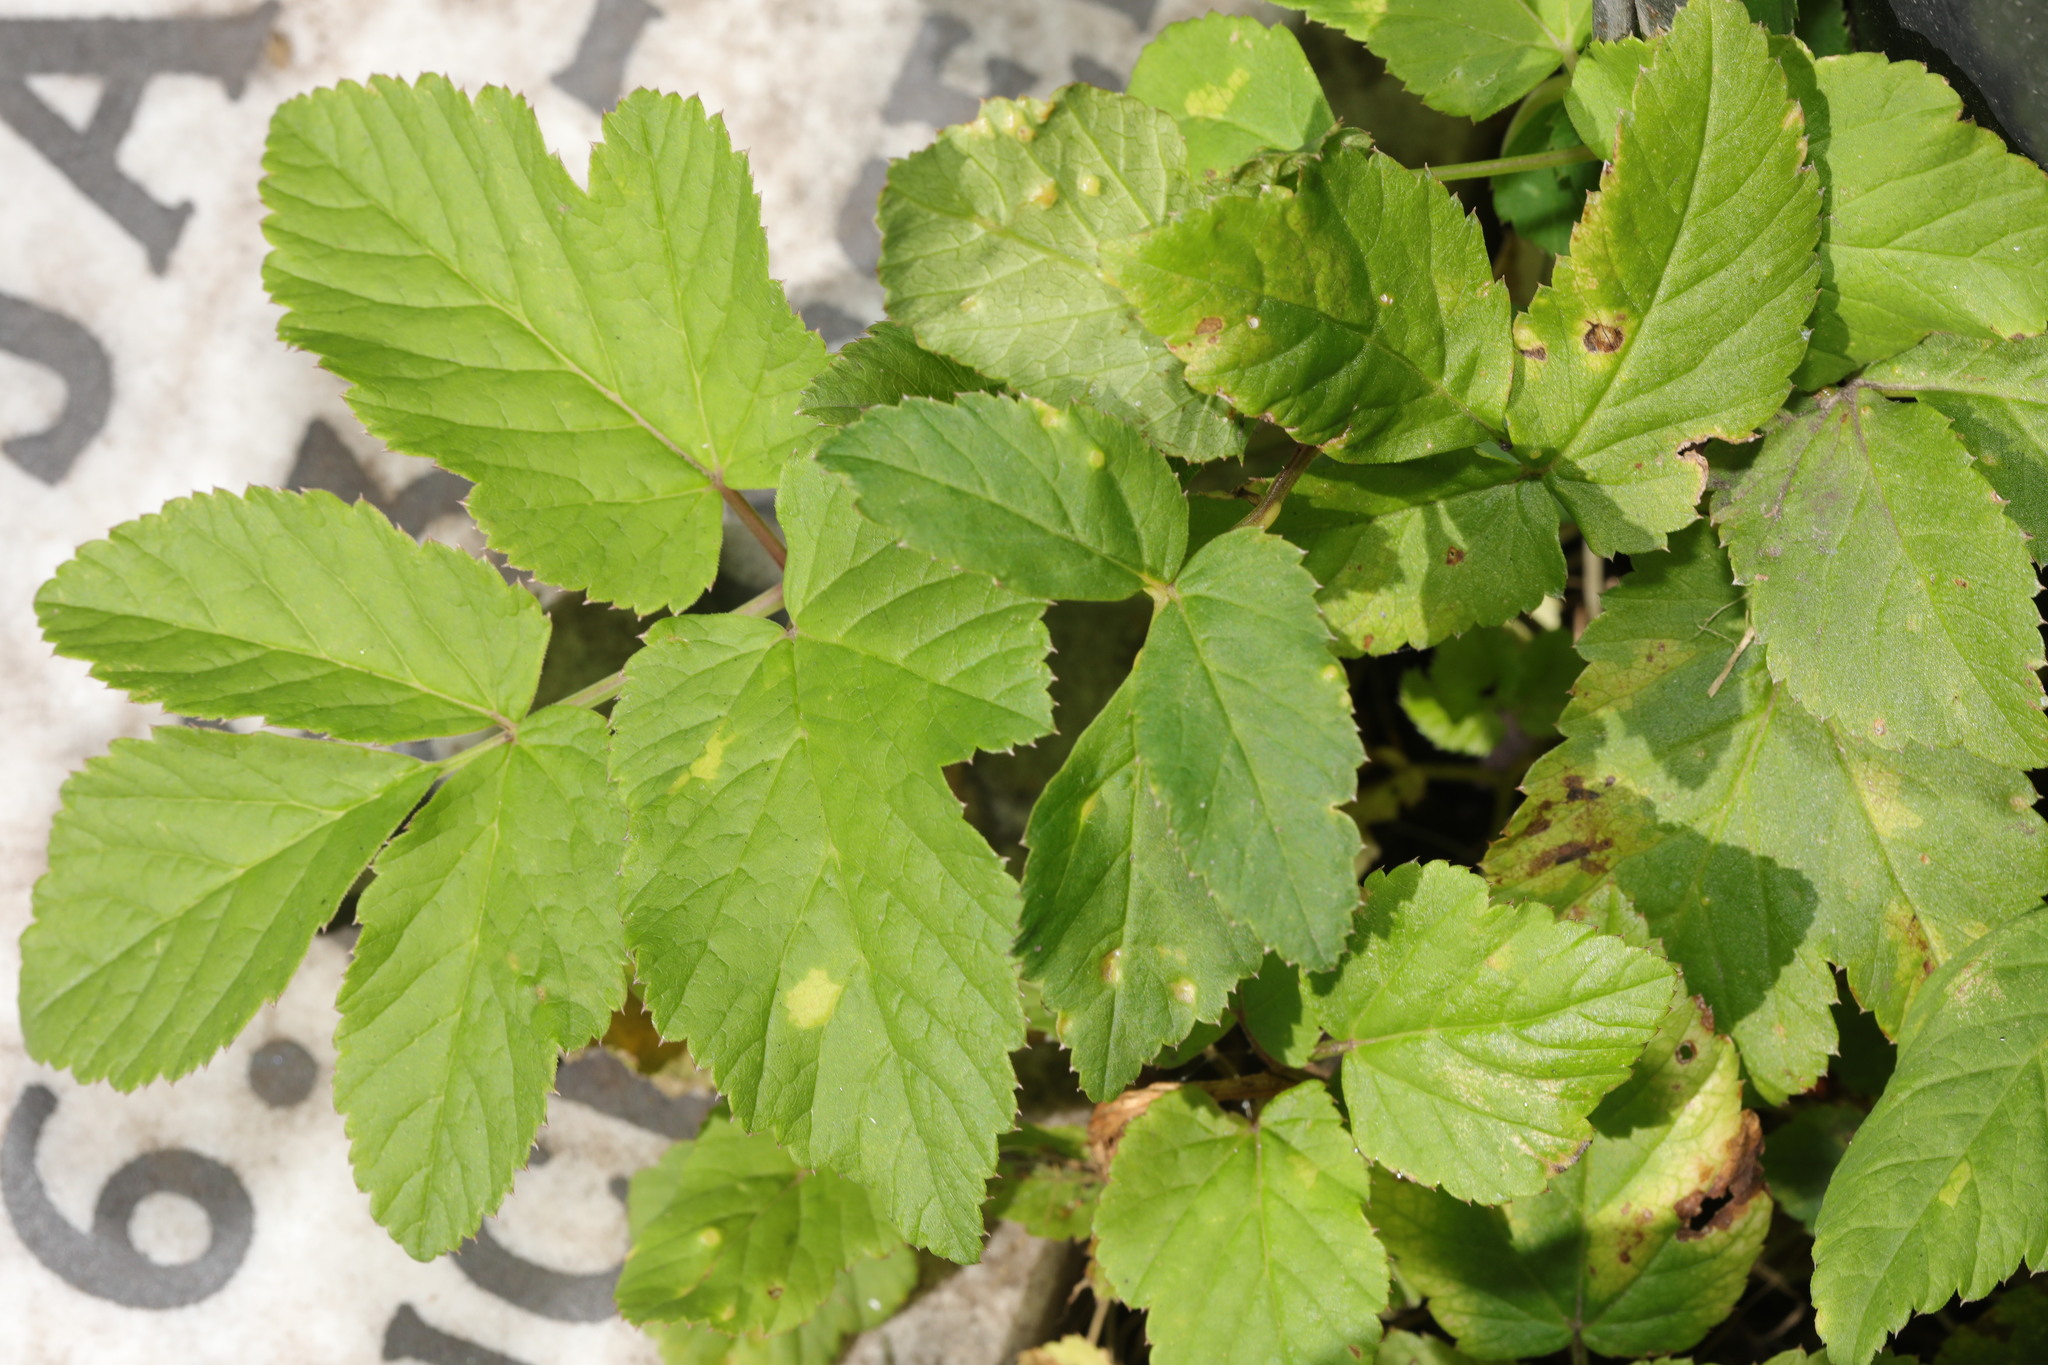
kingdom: Plantae
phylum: Tracheophyta
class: Magnoliopsida
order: Apiales
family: Apiaceae
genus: Aegopodium
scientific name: Aegopodium podagraria
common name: Ground-elder
